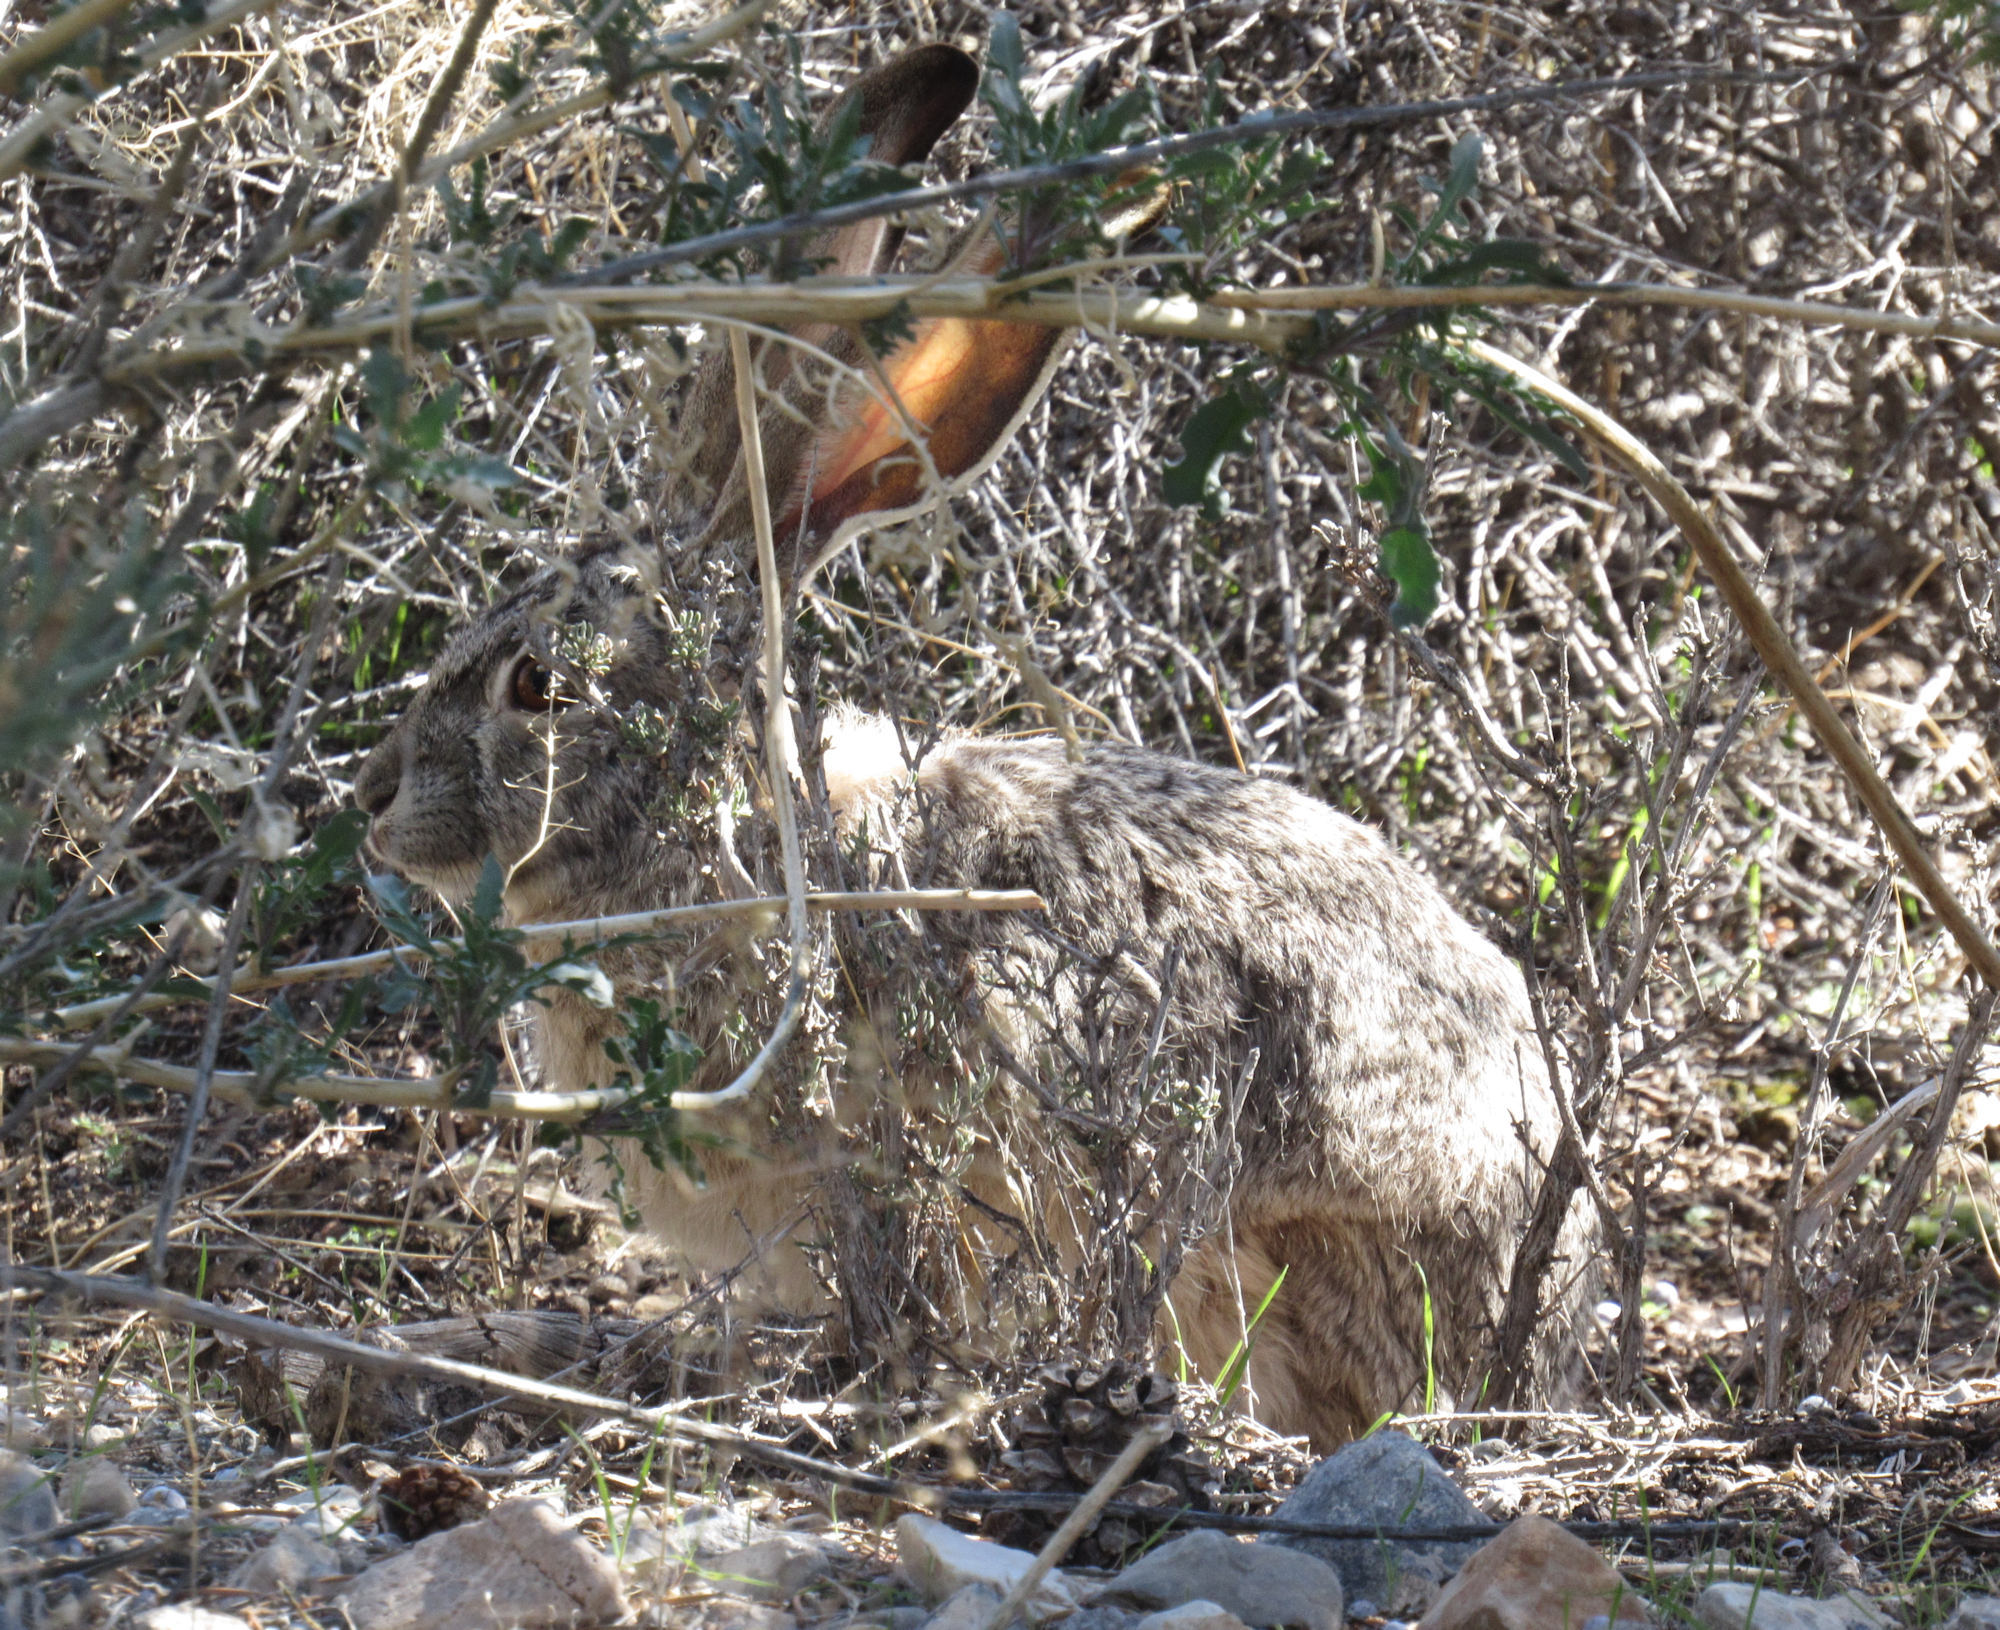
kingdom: Animalia
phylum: Chordata
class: Mammalia
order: Lagomorpha
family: Leporidae
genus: Lepus
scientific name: Lepus californicus
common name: Black-tailed jackrabbit
